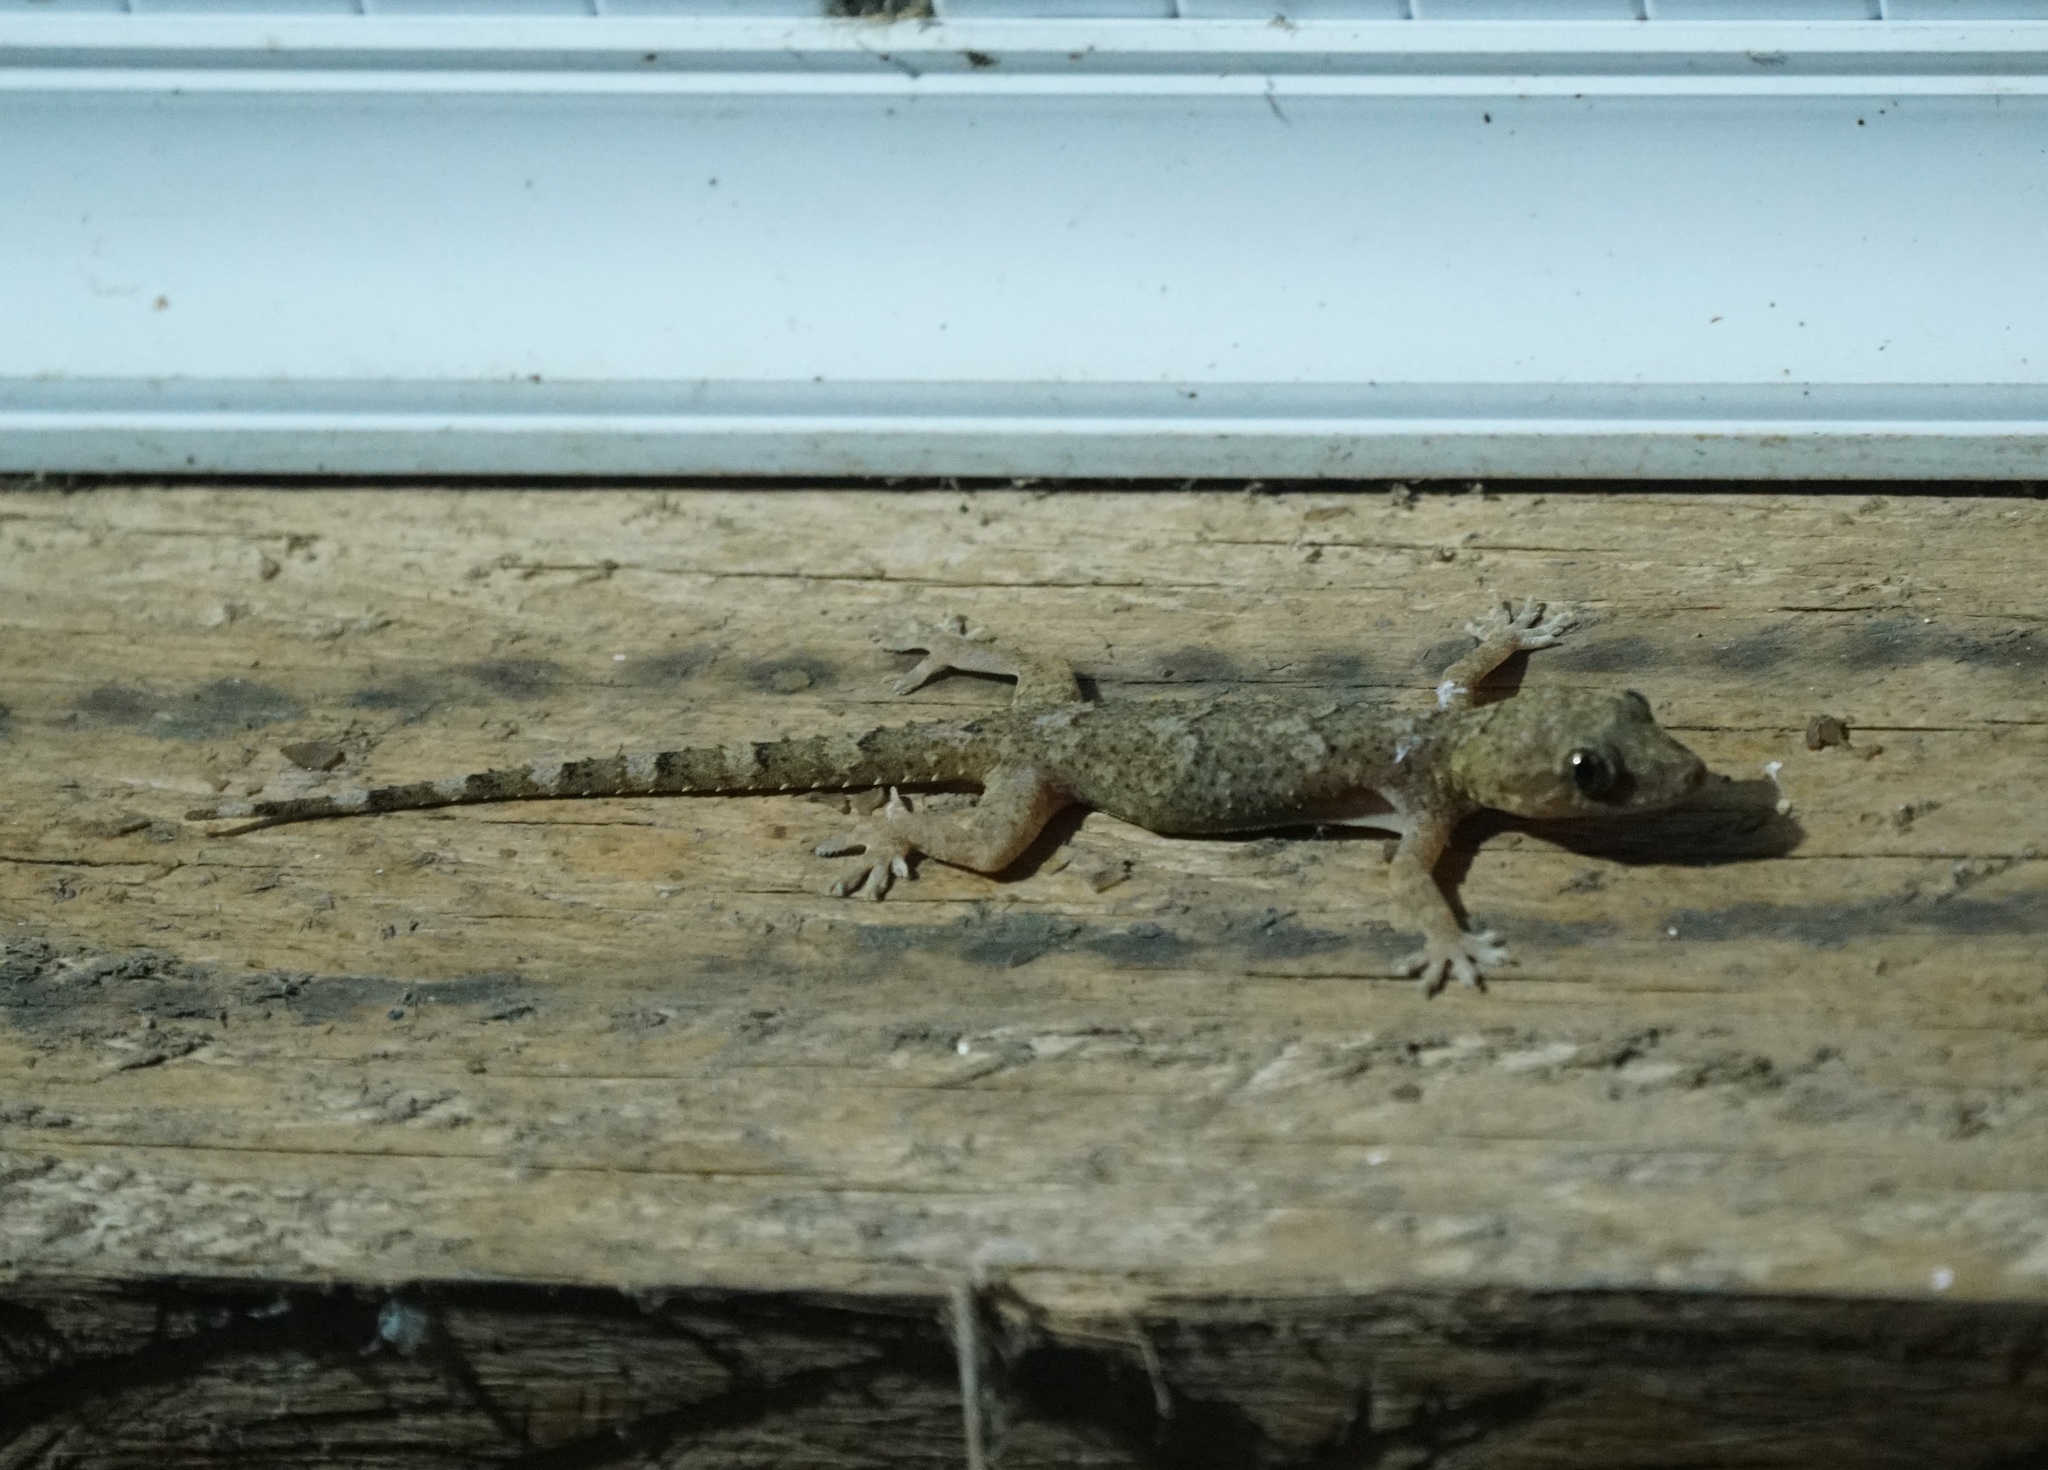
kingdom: Animalia
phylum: Chordata
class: Squamata
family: Gekkonidae
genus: Hemidactylus
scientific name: Hemidactylus mabouia
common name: House gecko
